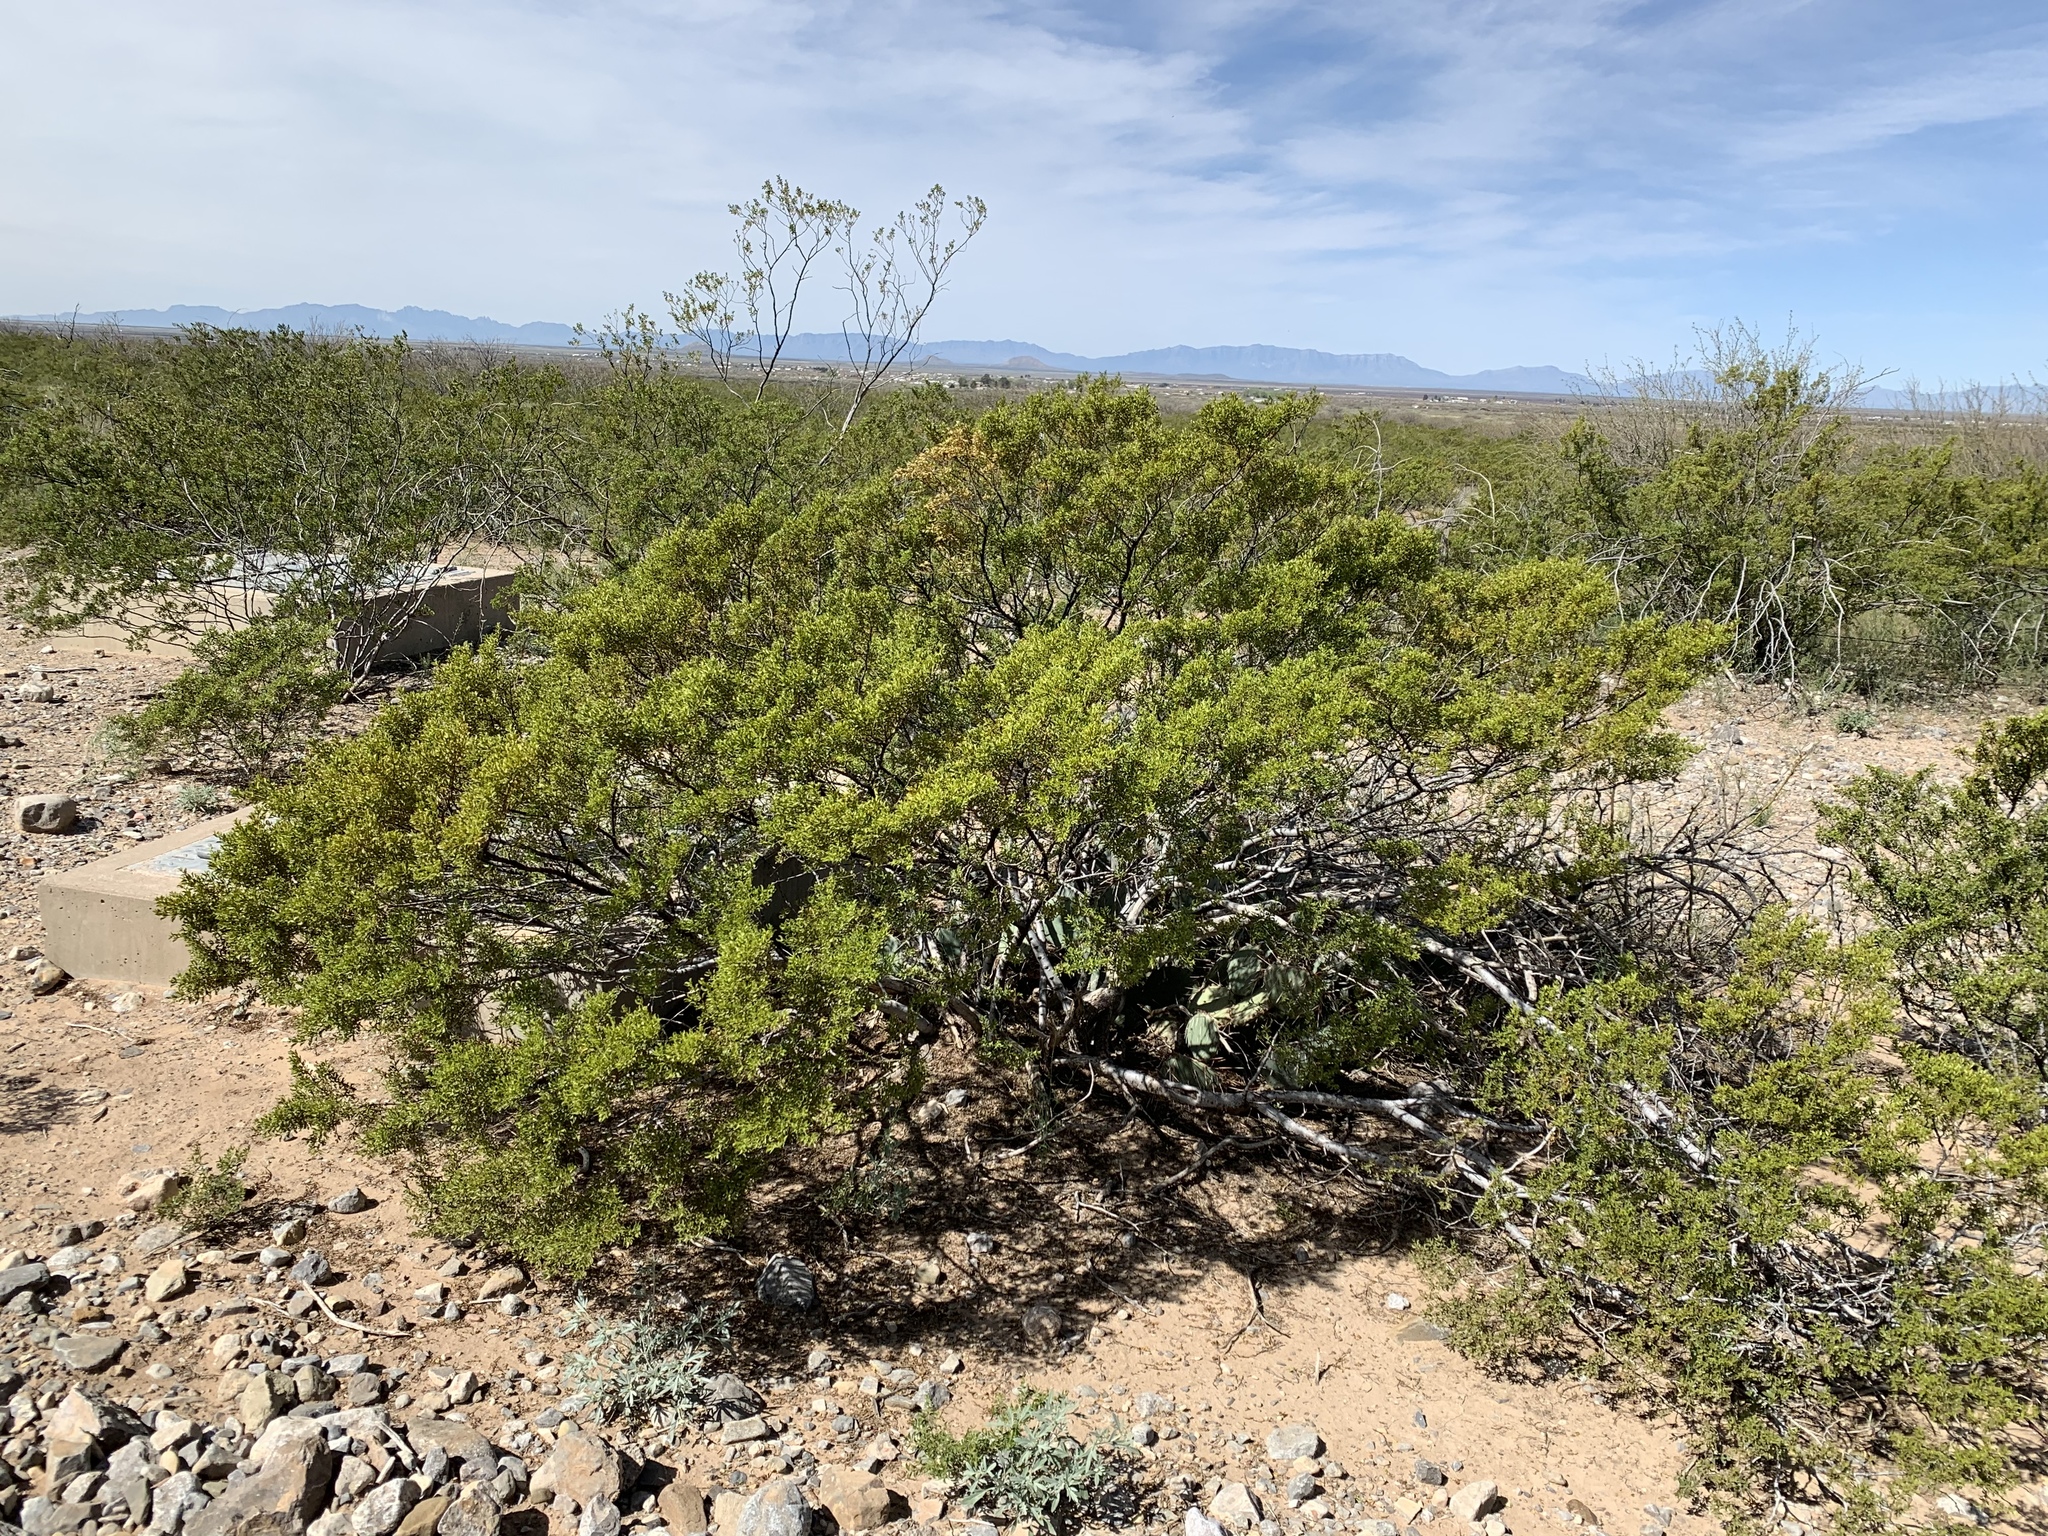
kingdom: Plantae
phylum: Tracheophyta
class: Magnoliopsida
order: Zygophyllales
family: Zygophyllaceae
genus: Larrea
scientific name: Larrea tridentata
